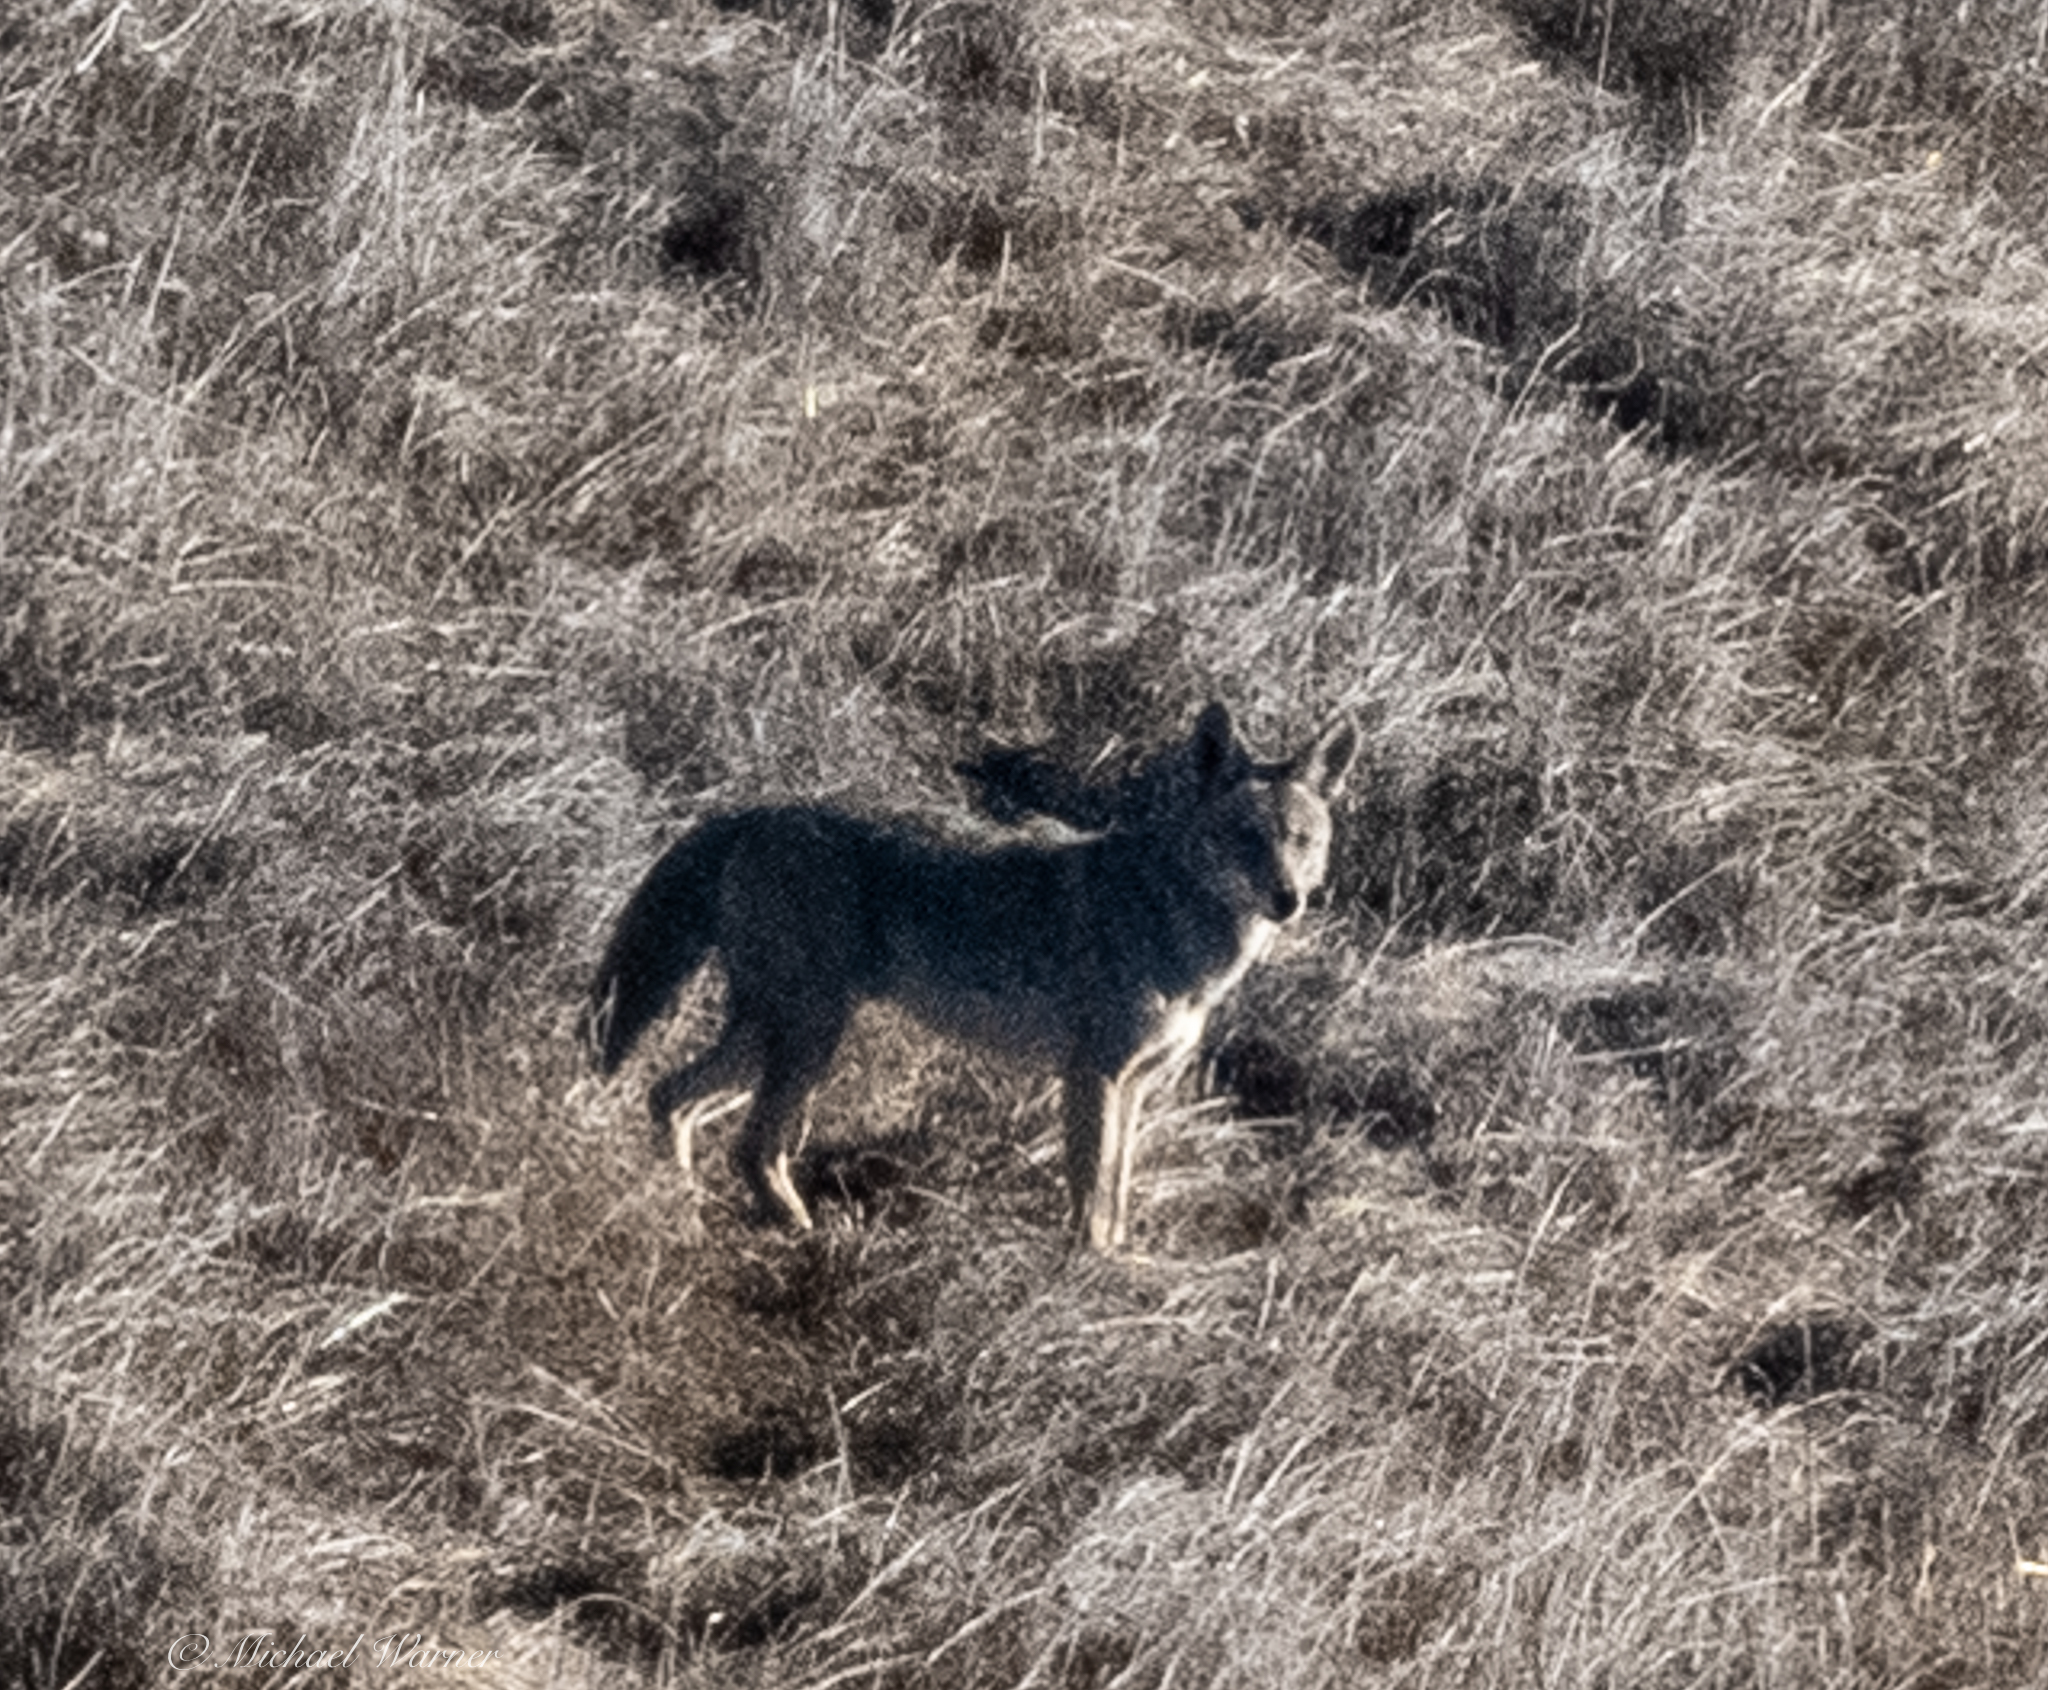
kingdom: Animalia
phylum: Chordata
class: Mammalia
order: Carnivora
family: Canidae
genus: Canis
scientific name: Canis latrans
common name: Coyote
